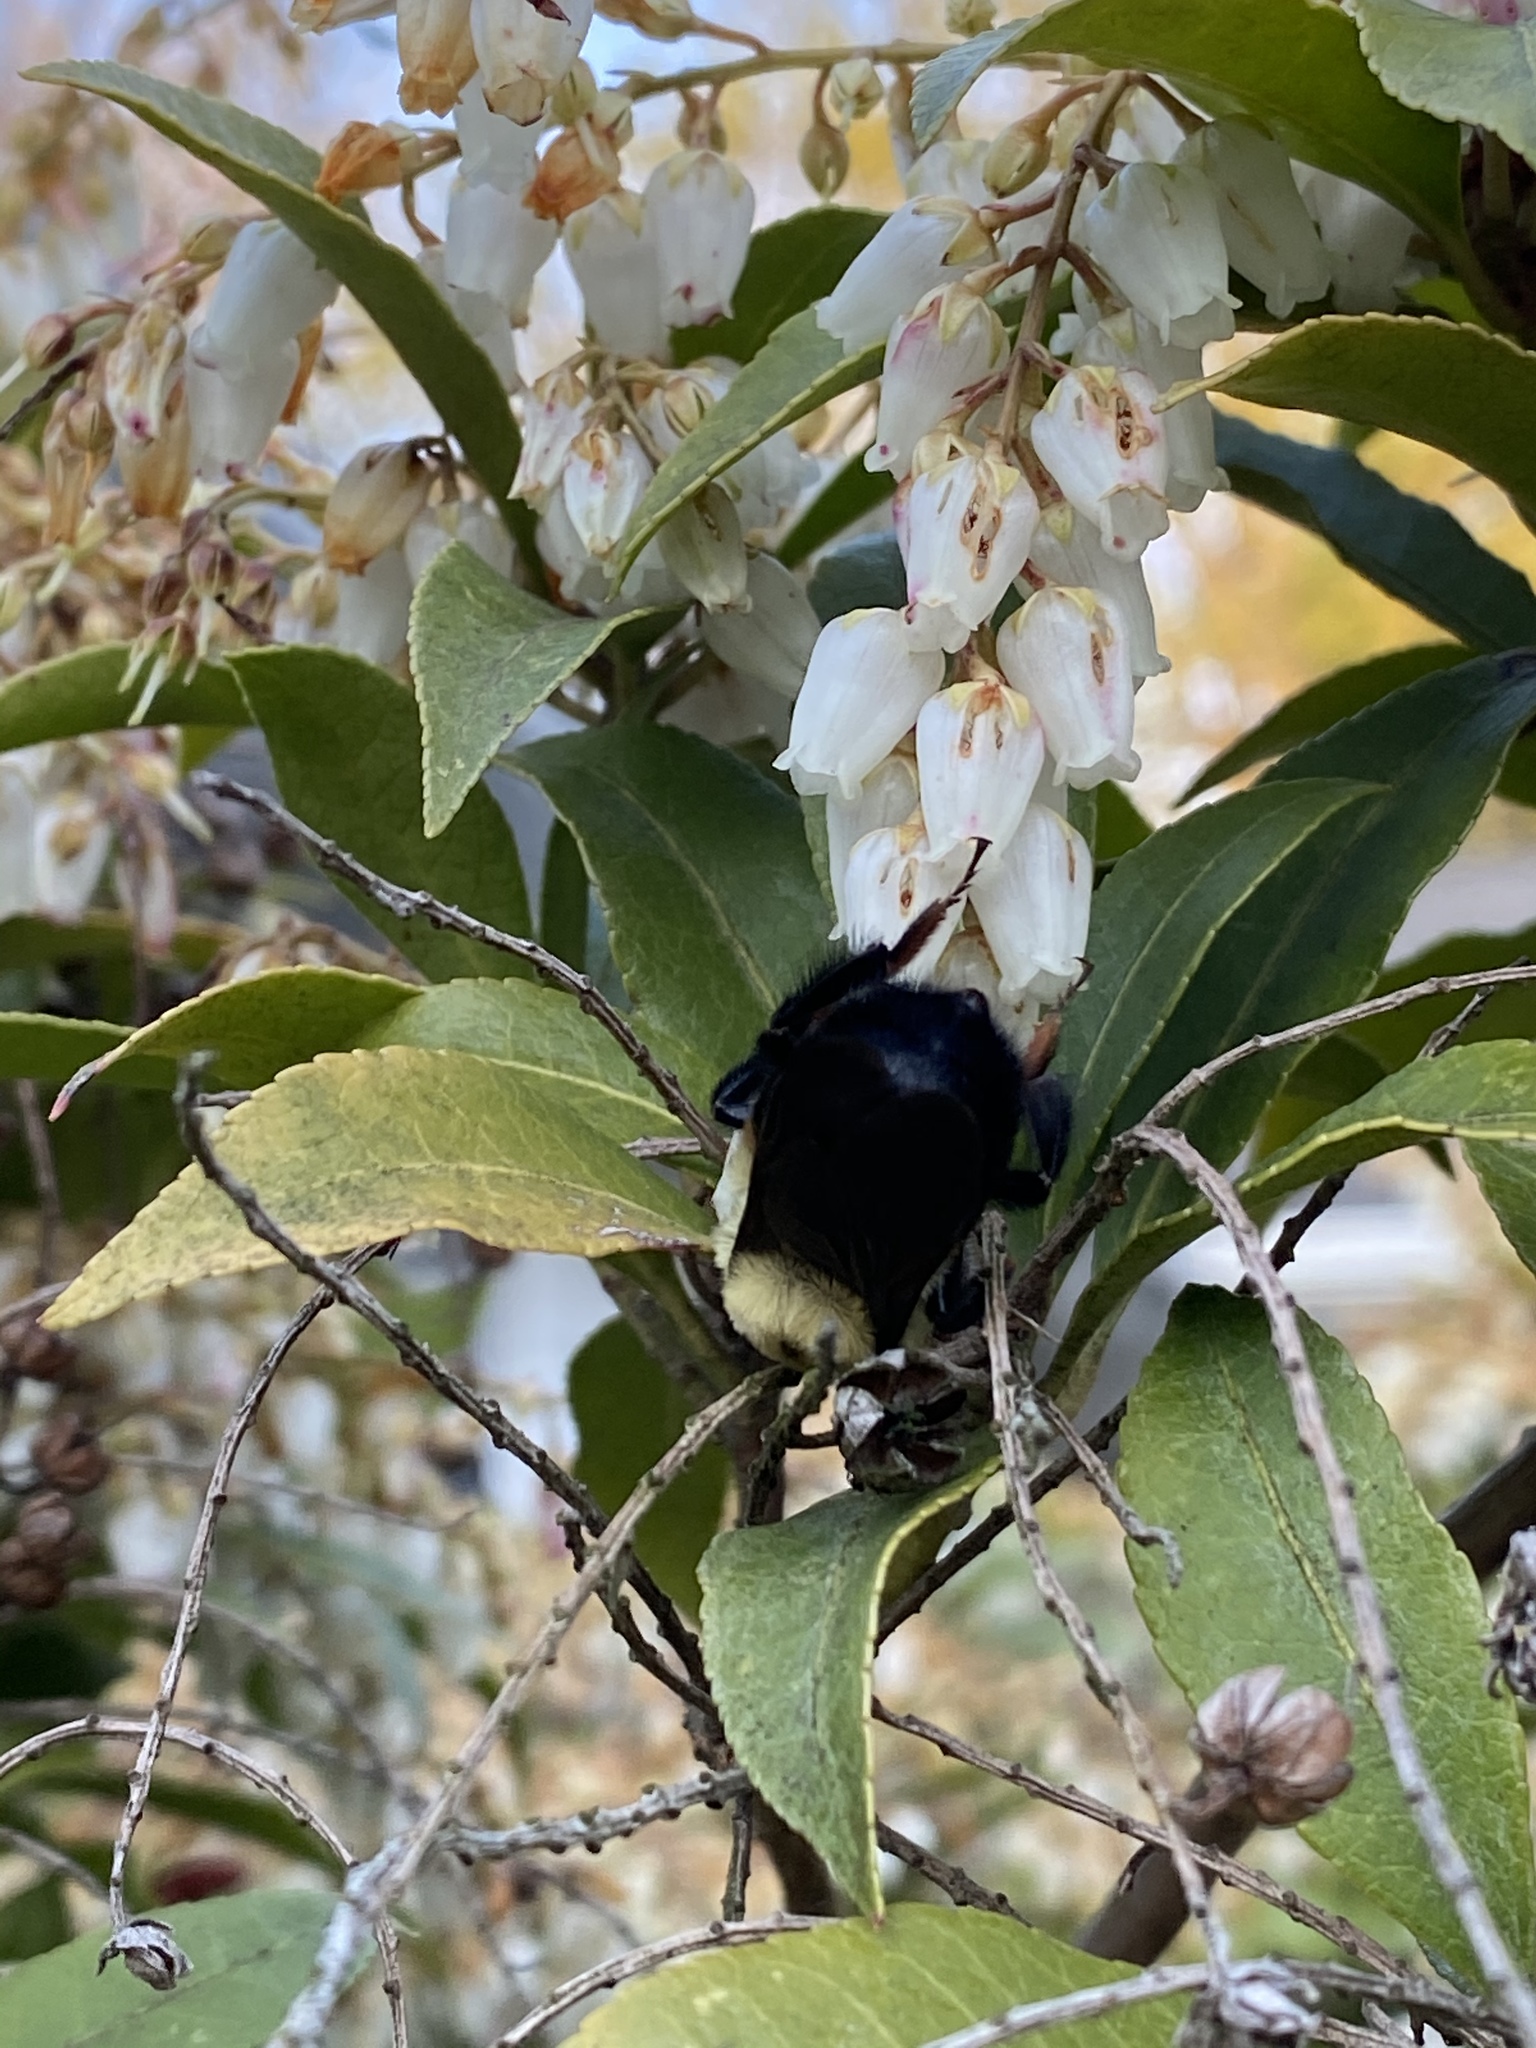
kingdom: Animalia
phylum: Arthropoda
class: Insecta
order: Hymenoptera
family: Apidae
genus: Bombus
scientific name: Bombus griseocollis
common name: Brown-belted bumble bee
